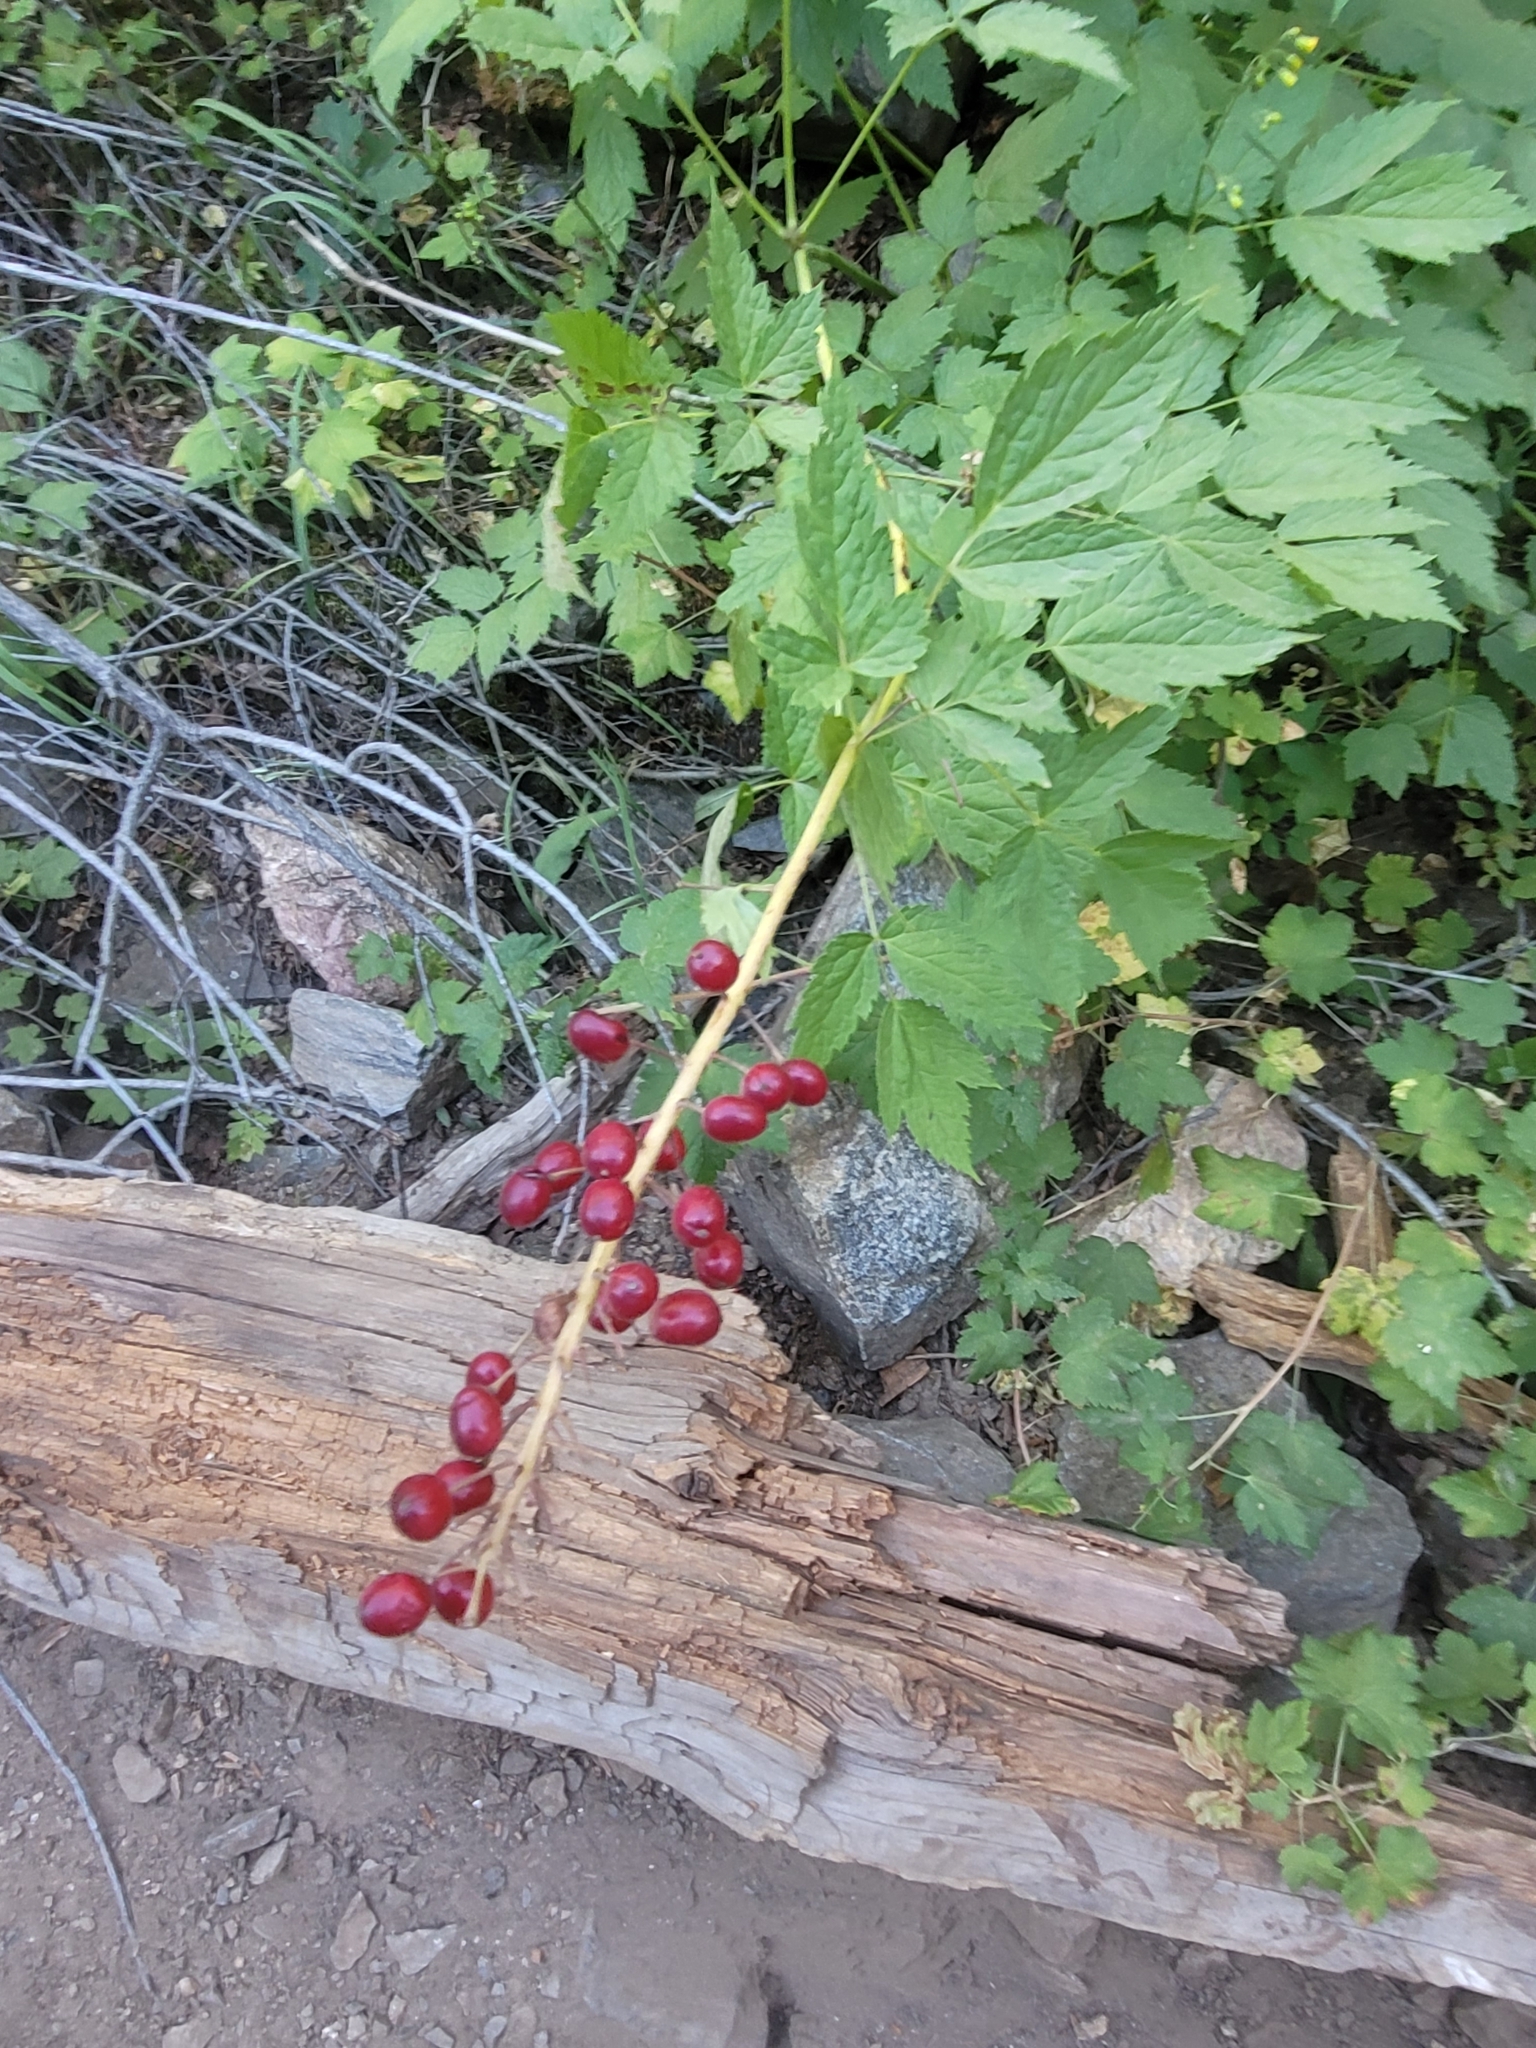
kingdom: Plantae
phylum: Tracheophyta
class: Magnoliopsida
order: Ranunculales
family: Ranunculaceae
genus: Actaea
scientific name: Actaea rubra
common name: Red baneberry
